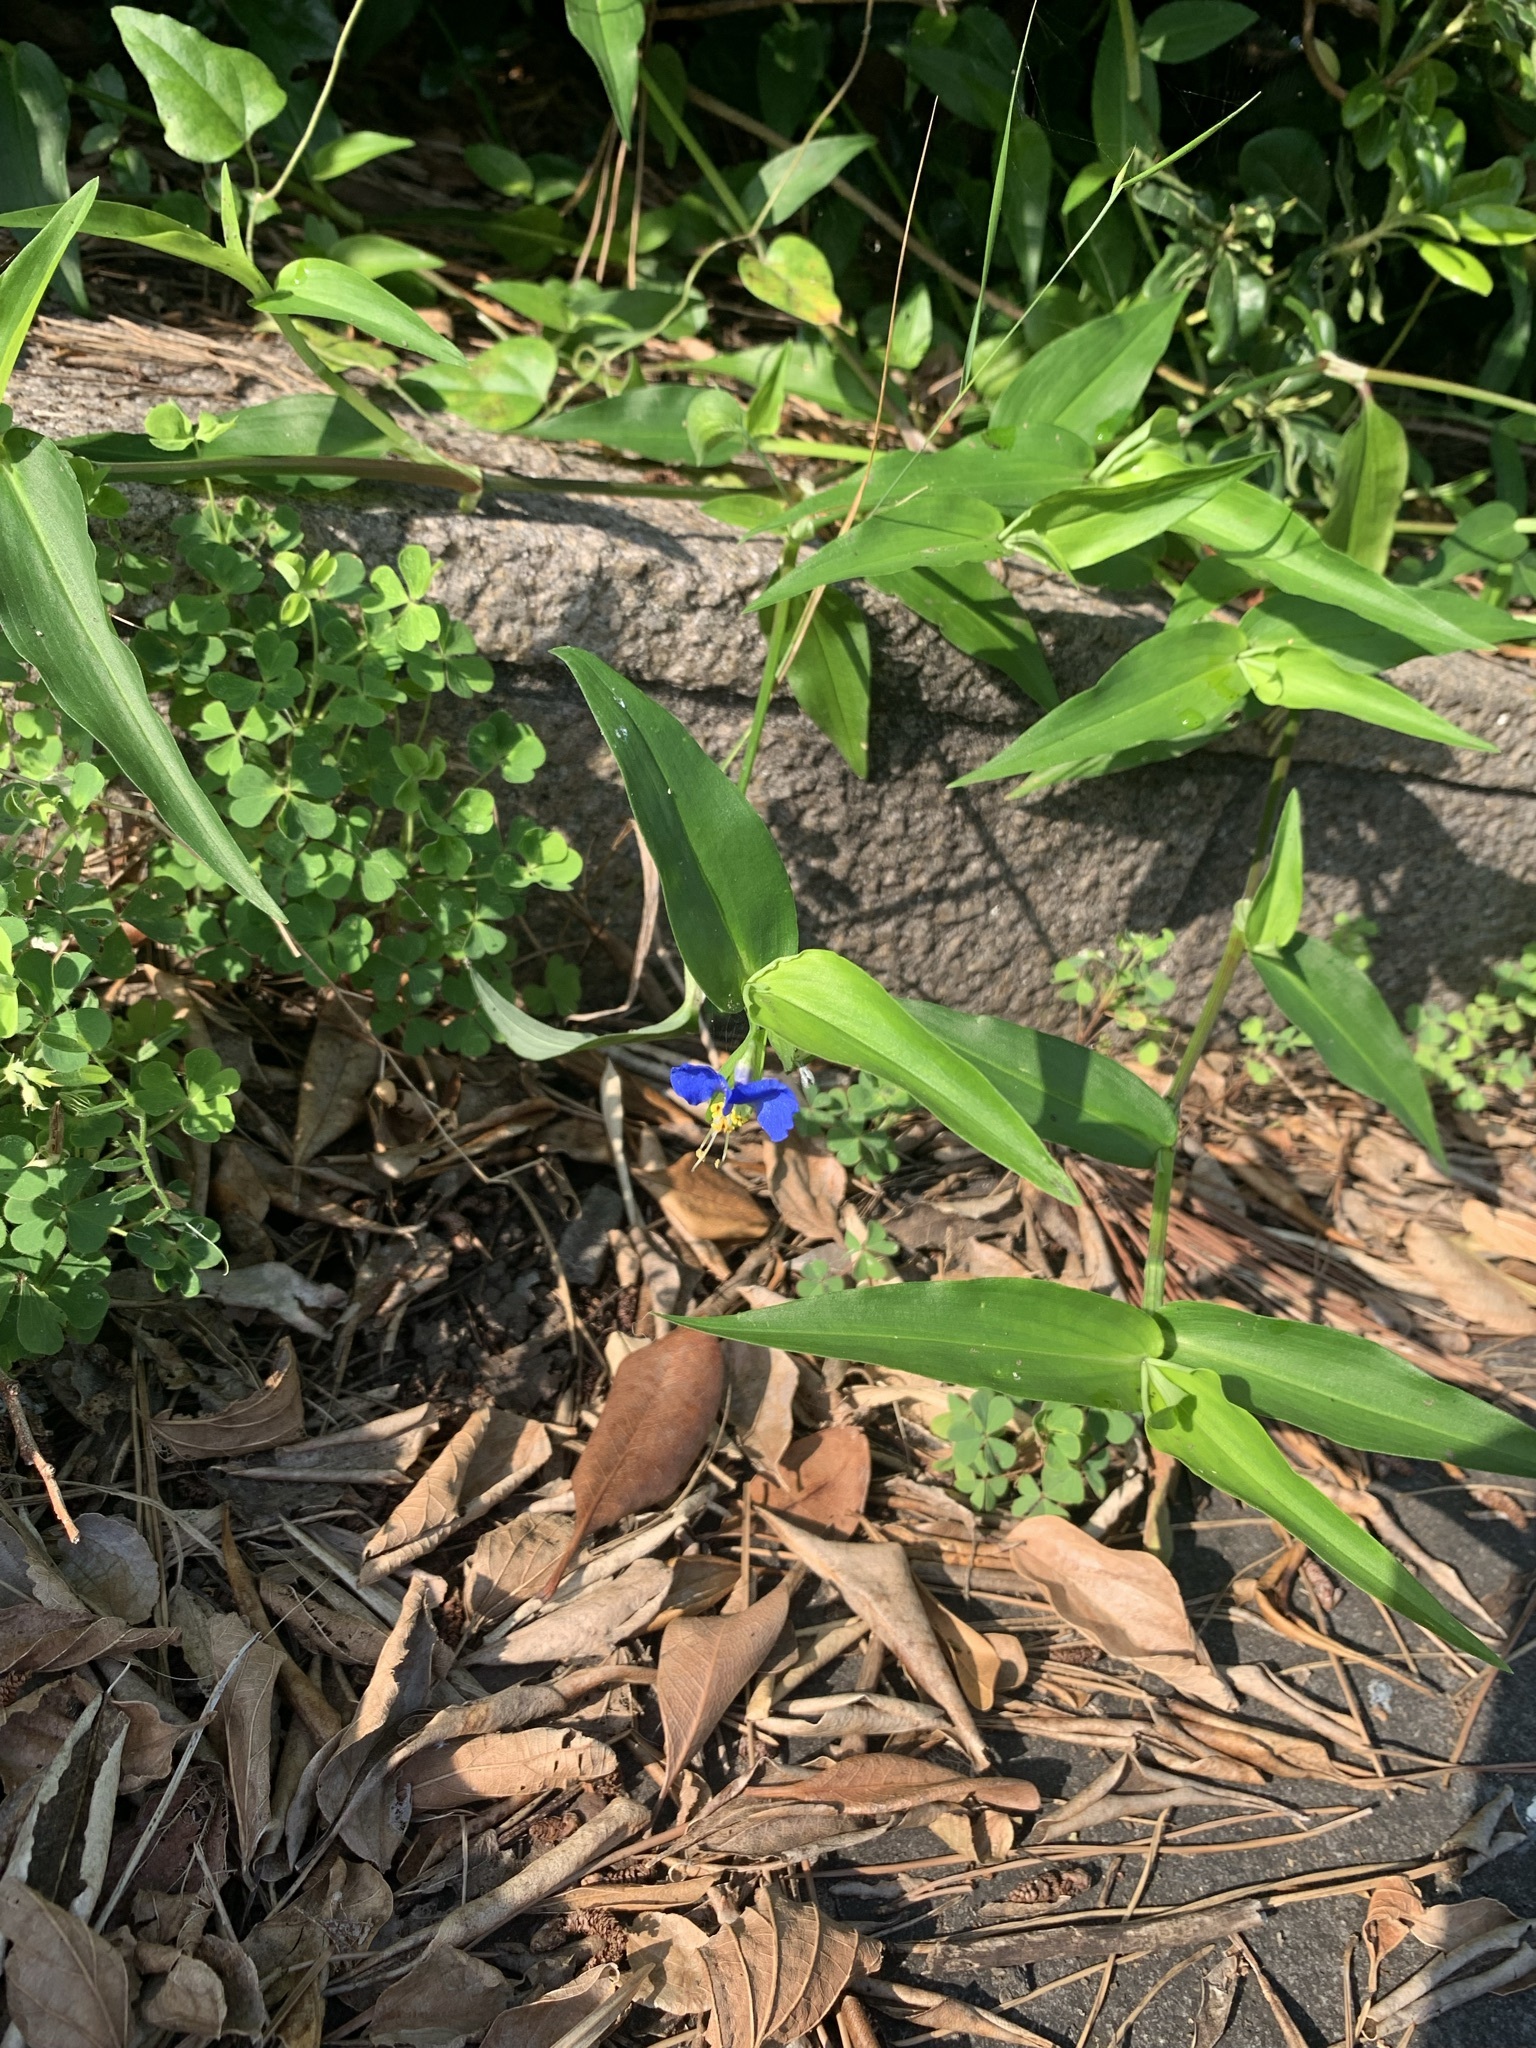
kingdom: Plantae
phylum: Tracheophyta
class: Liliopsida
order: Commelinales
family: Commelinaceae
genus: Commelina
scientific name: Commelina communis
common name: Asiatic dayflower
